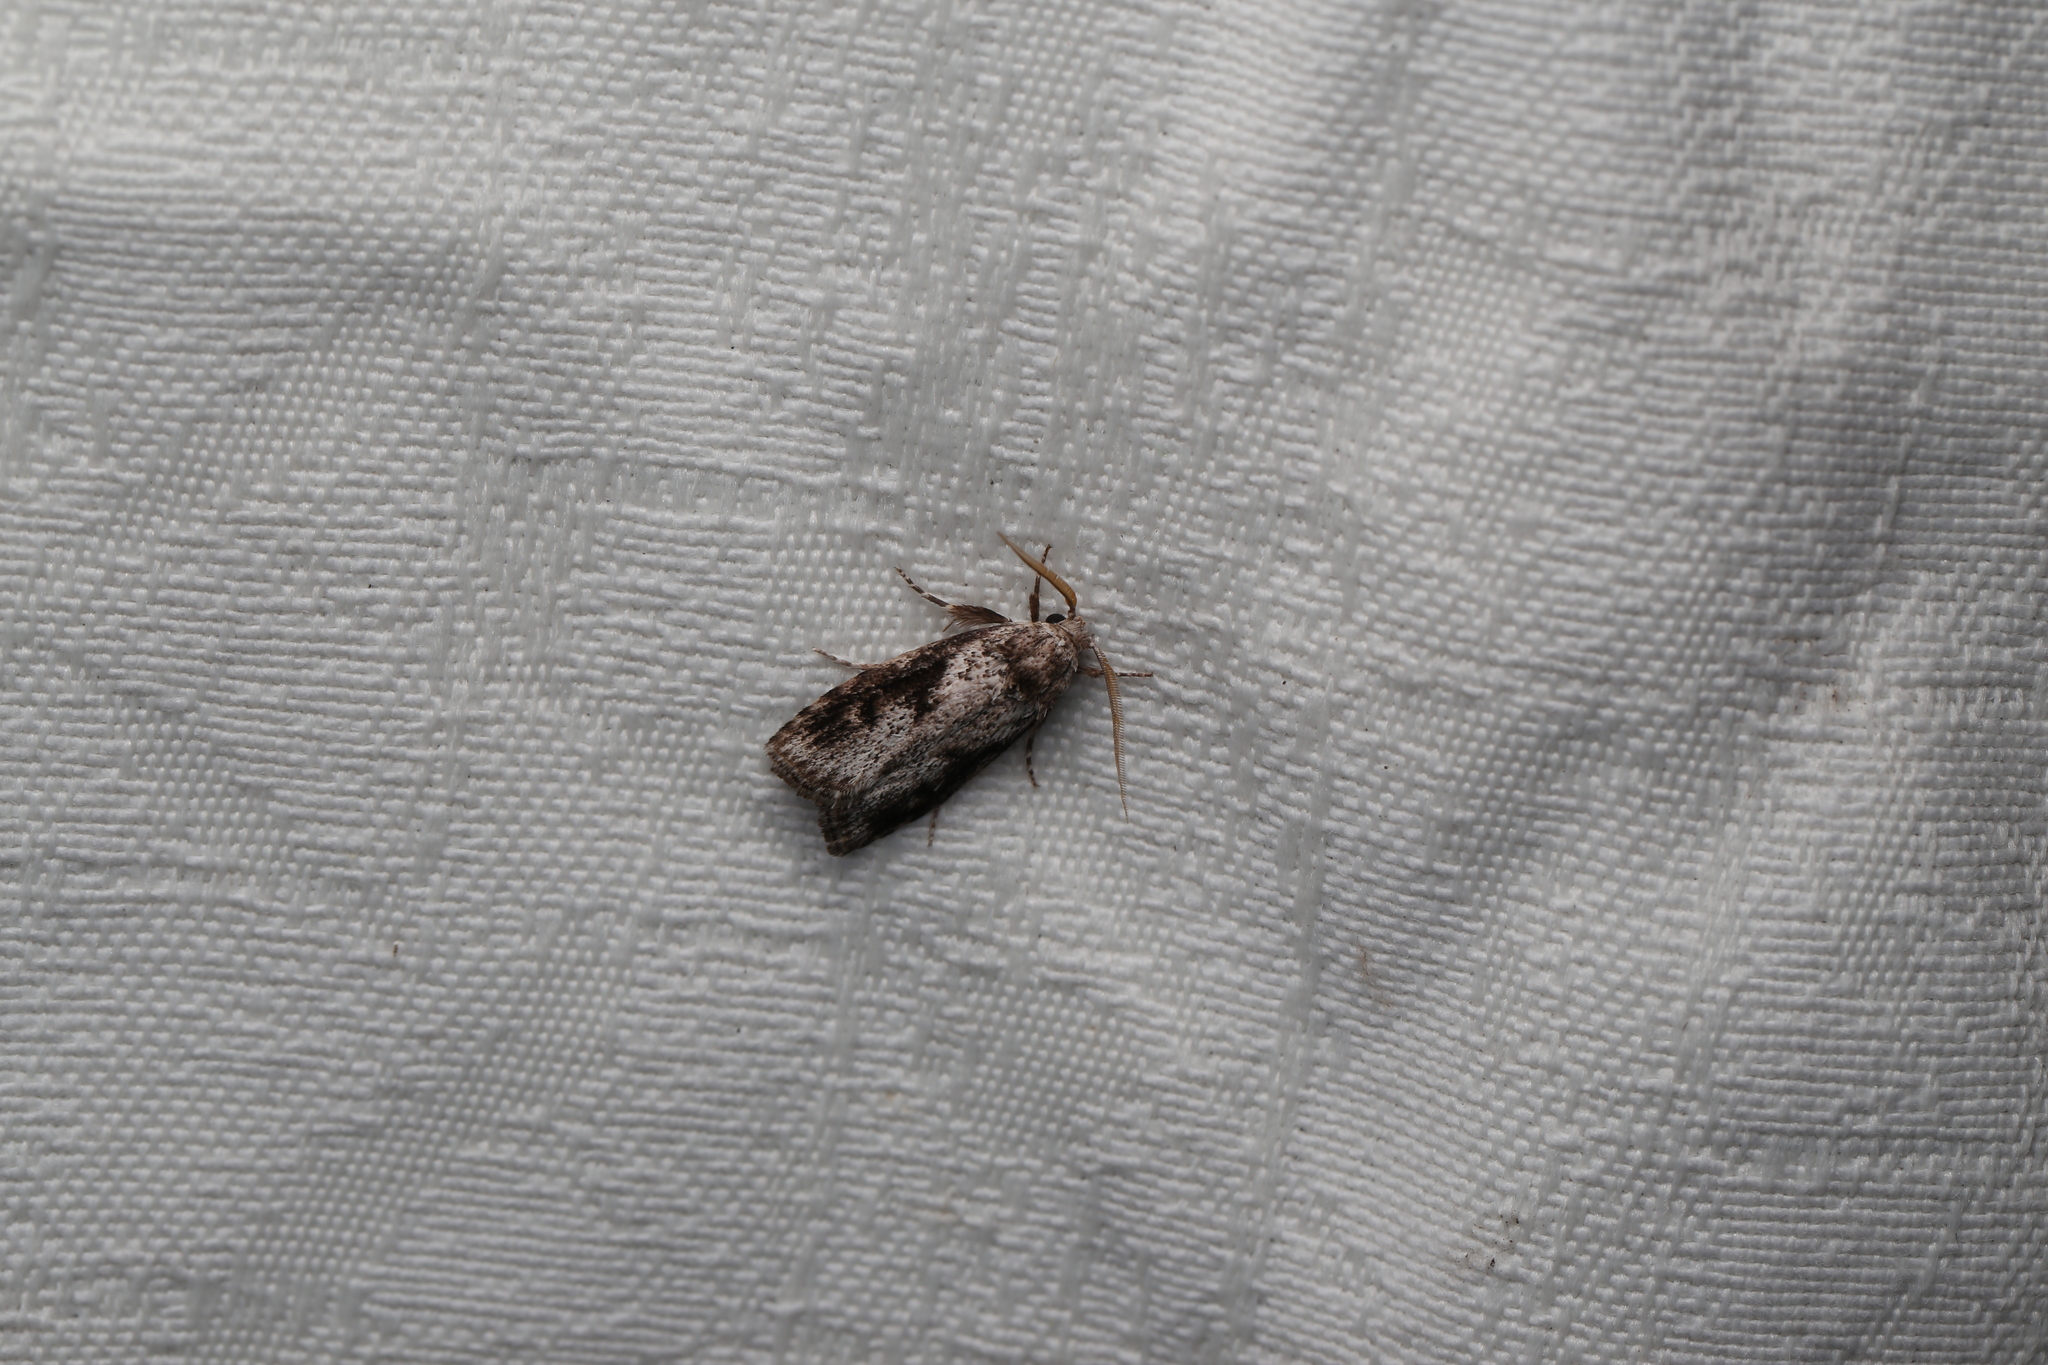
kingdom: Animalia
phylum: Arthropoda
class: Insecta
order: Lepidoptera
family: Xyloryctidae
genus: Cryptophasa
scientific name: Cryptophasa molaris
